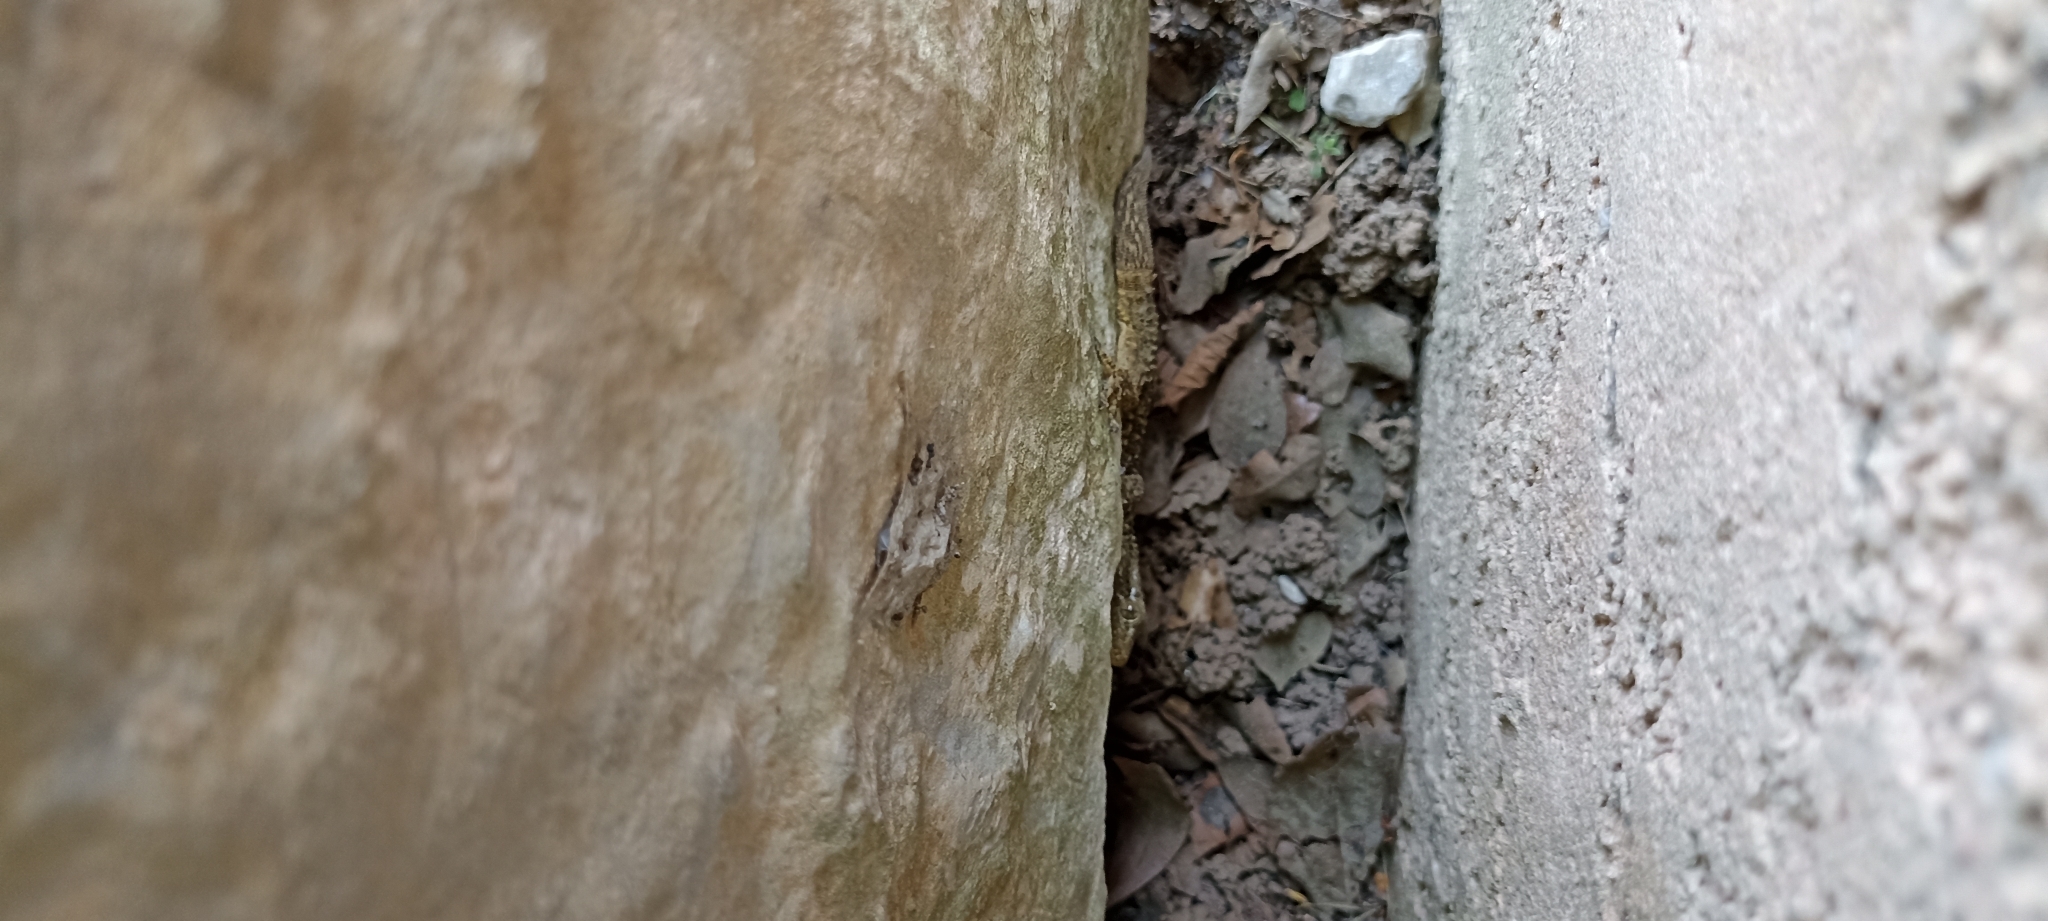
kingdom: Animalia
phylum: Chordata
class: Squamata
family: Phyllodactylidae
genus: Tarentola
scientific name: Tarentola mauritanica
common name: Moorish gecko
